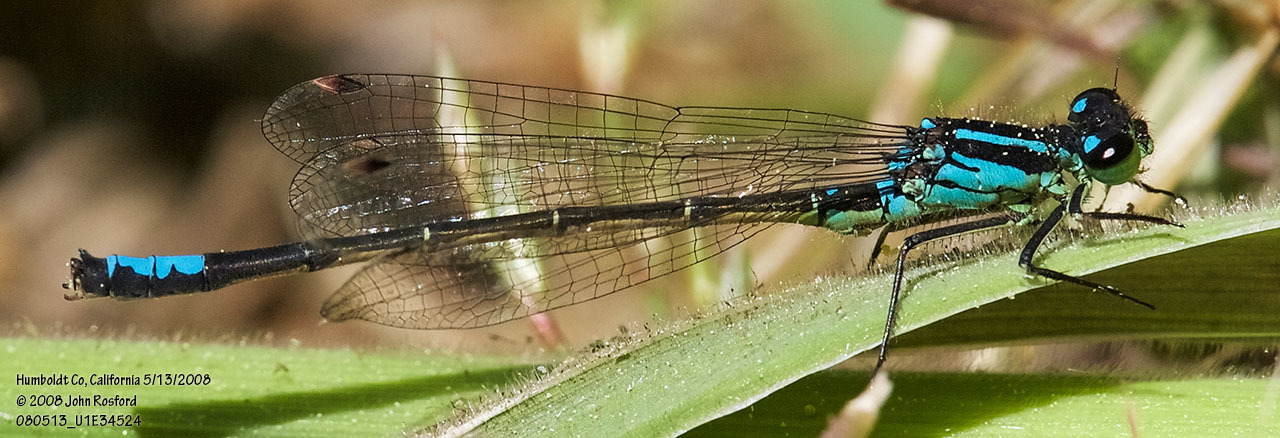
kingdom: Animalia
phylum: Arthropoda
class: Insecta
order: Odonata
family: Coenagrionidae
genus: Ischnura
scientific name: Ischnura erratica
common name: Swift forktail
